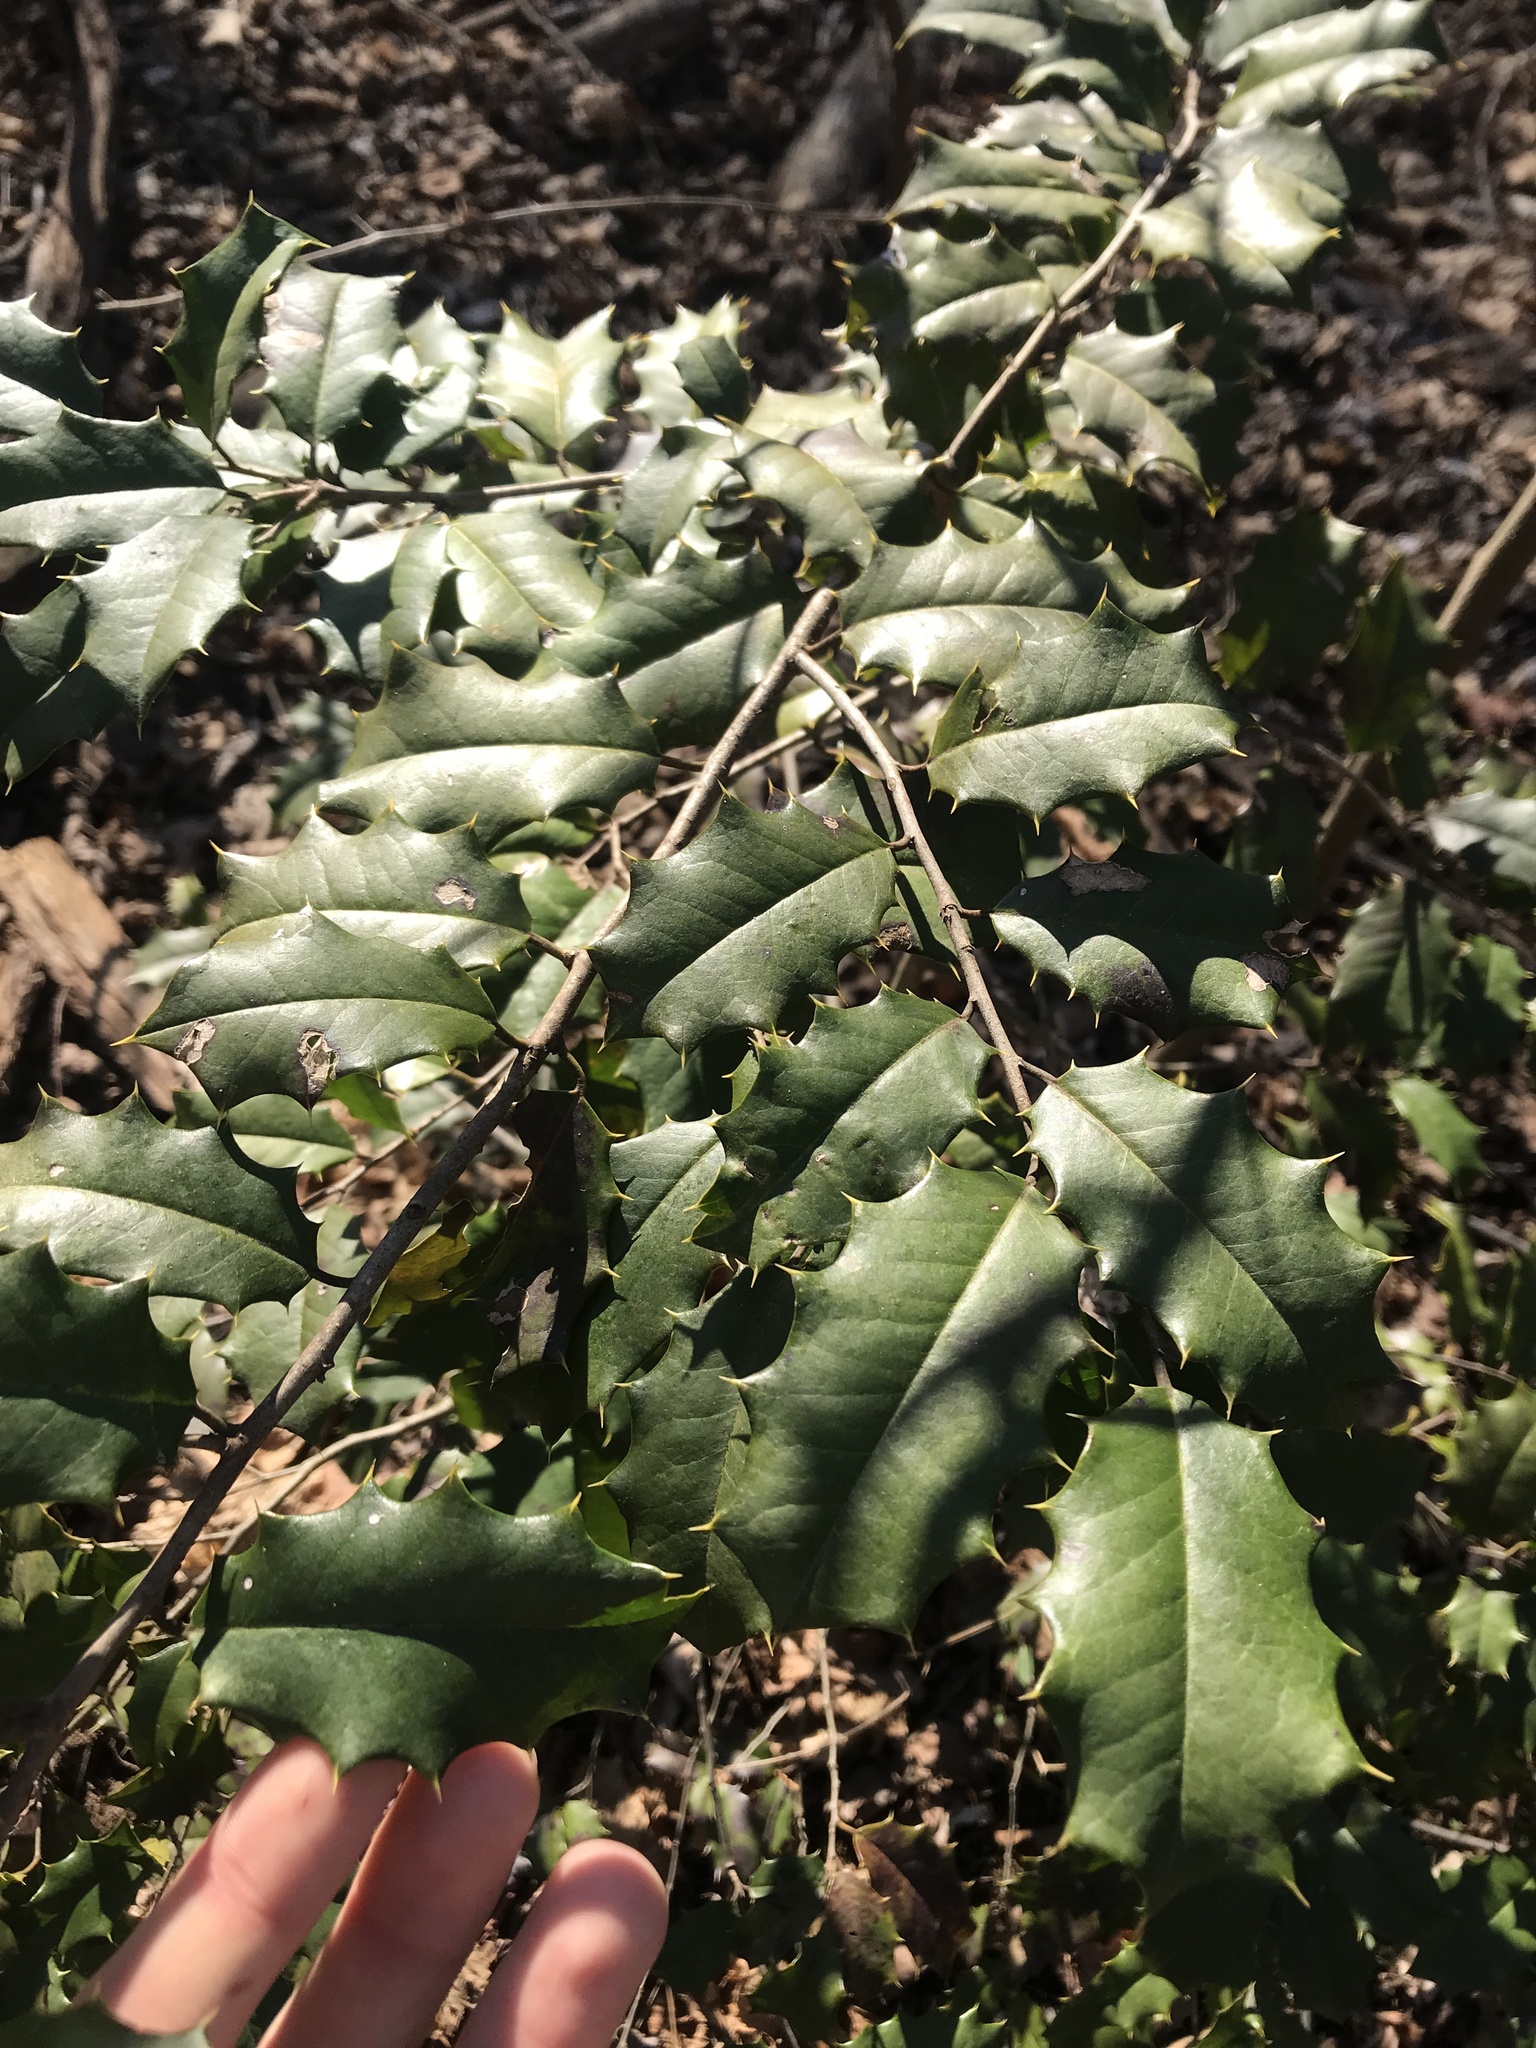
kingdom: Plantae
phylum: Tracheophyta
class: Magnoliopsida
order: Aquifoliales
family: Aquifoliaceae
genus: Ilex
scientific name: Ilex opaca
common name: American holly
